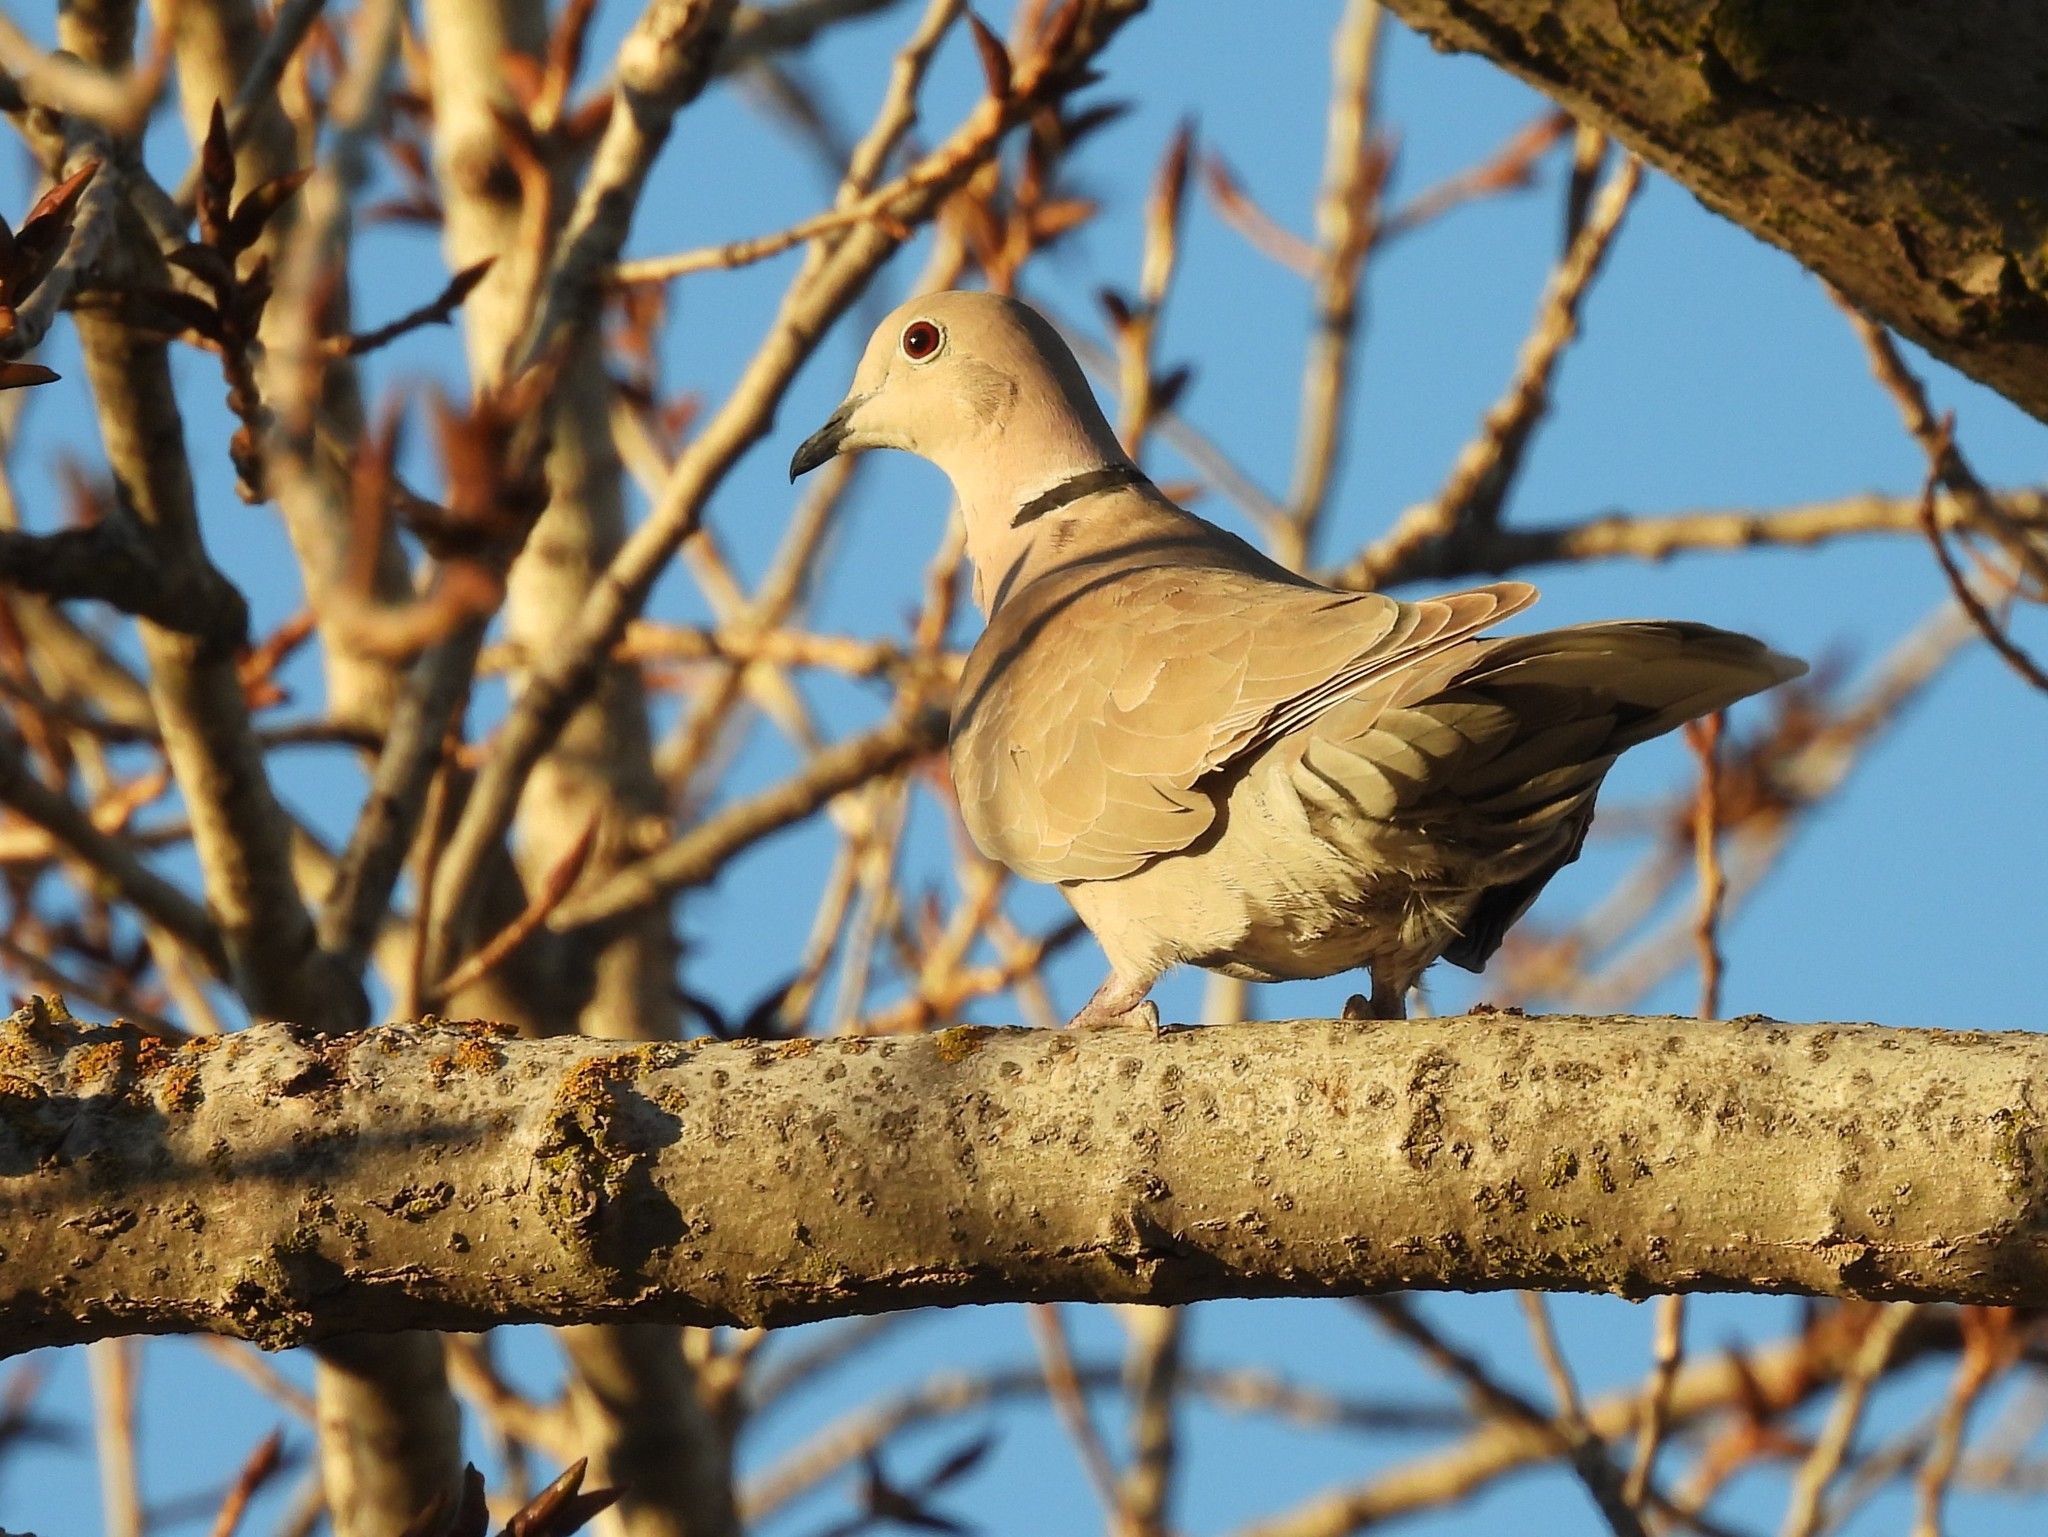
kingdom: Animalia
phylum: Chordata
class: Aves
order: Columbiformes
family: Columbidae
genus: Streptopelia
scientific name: Streptopelia decaocto
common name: Eurasian collared dove
